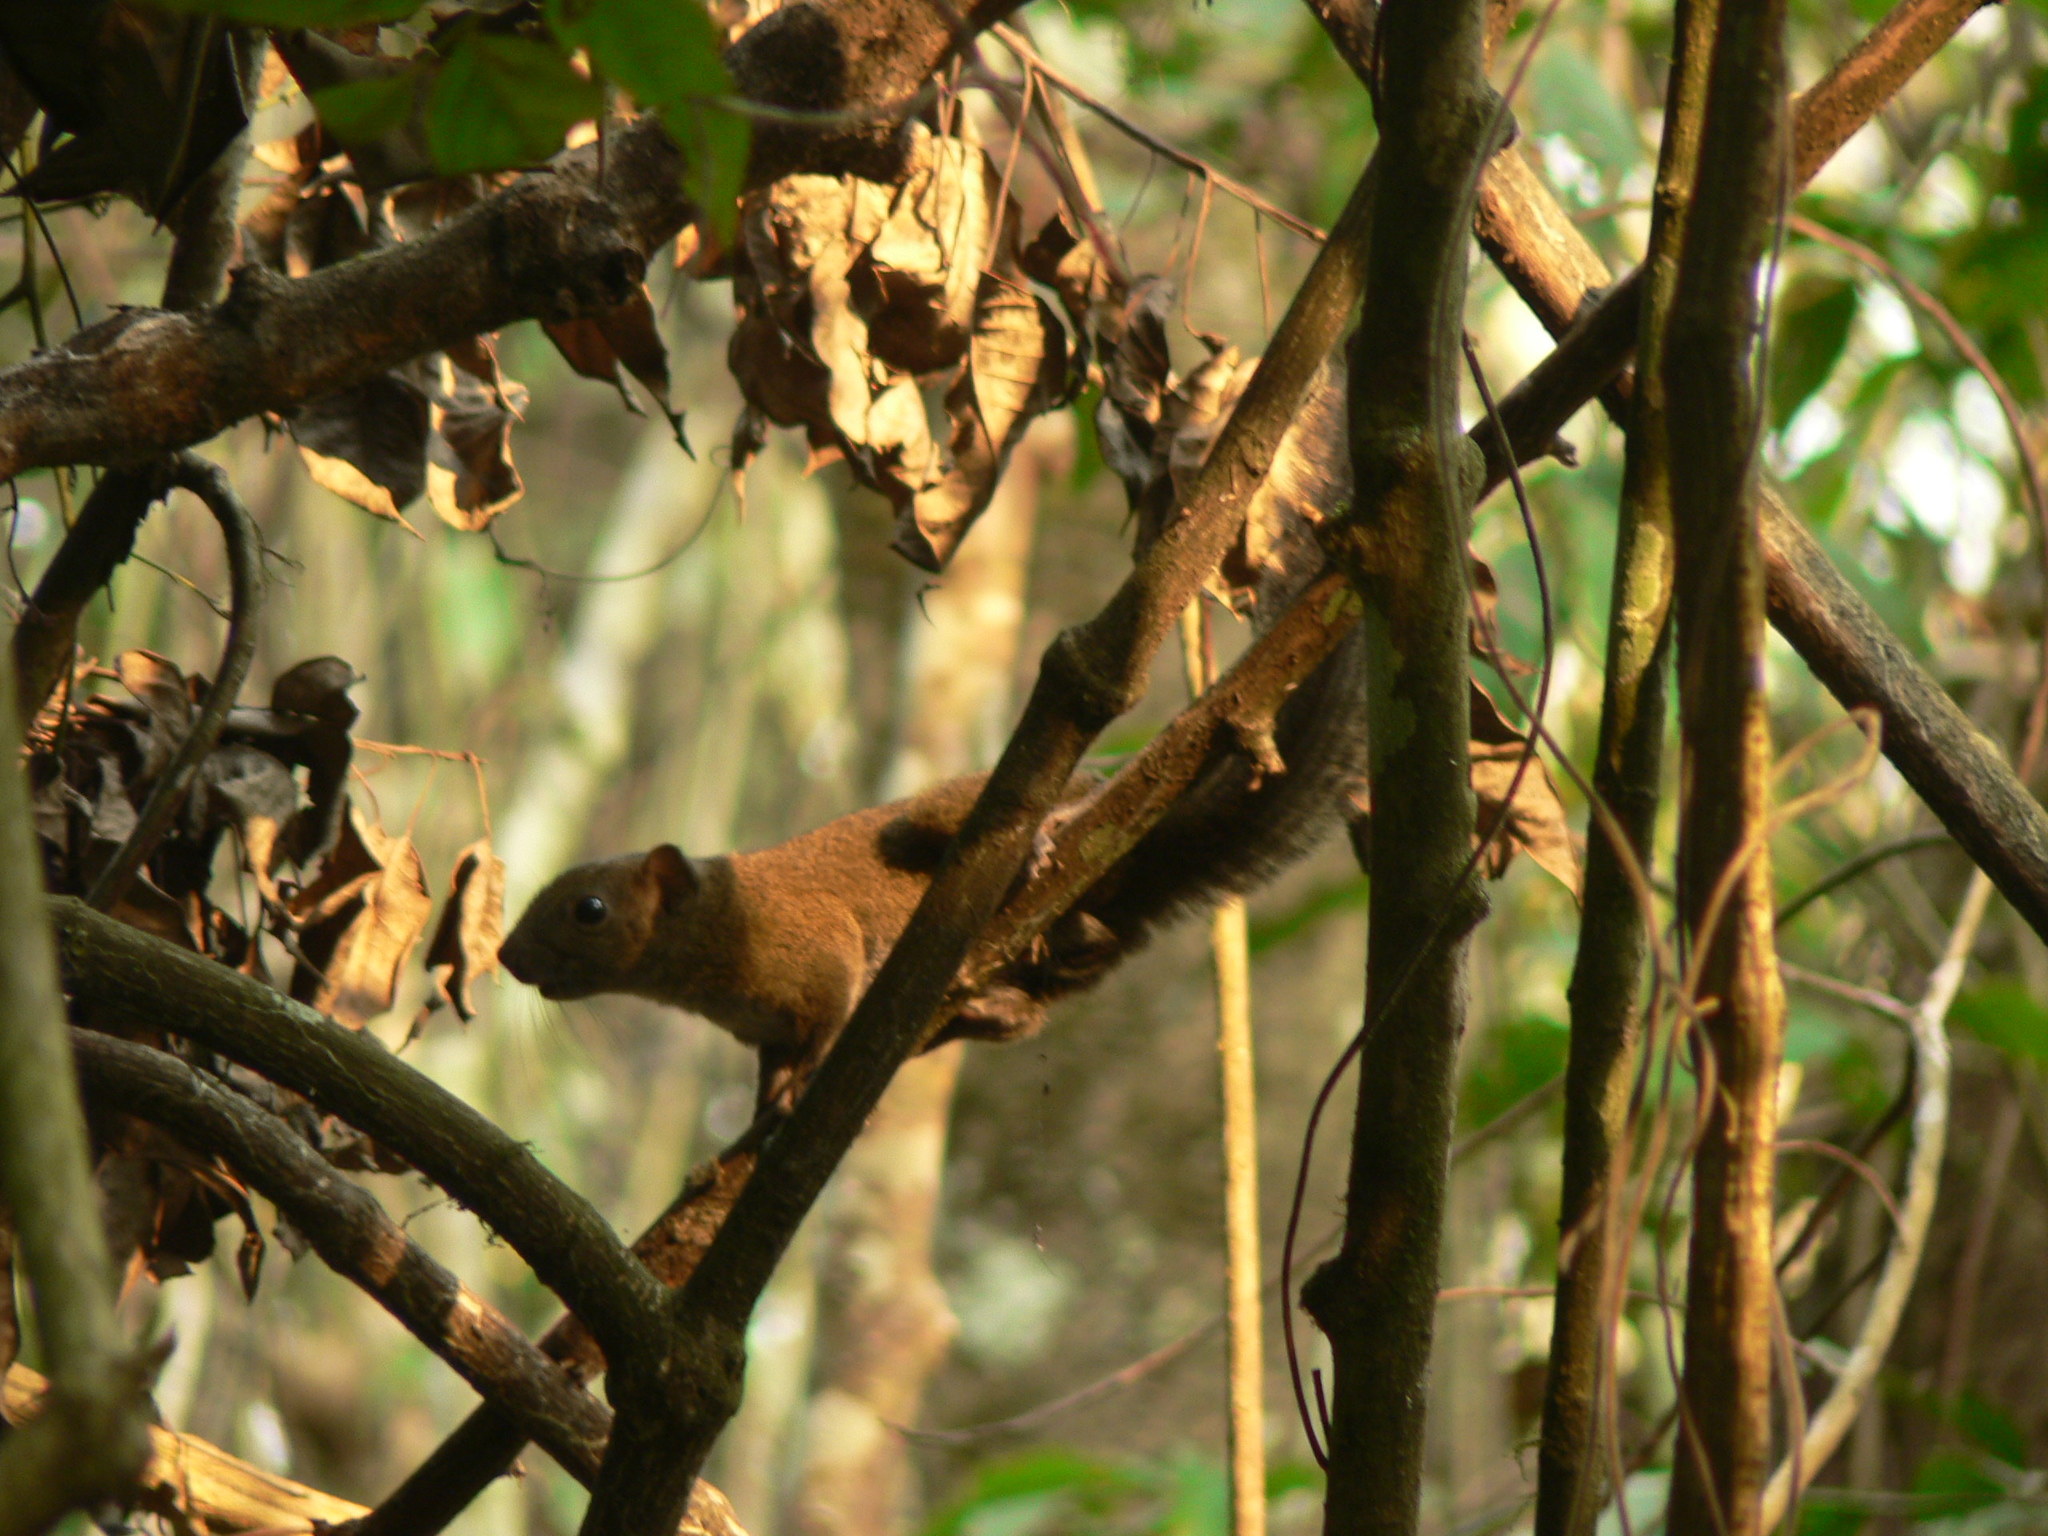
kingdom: Animalia
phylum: Chordata
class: Mammalia
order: Rodentia
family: Sciuridae
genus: Callosciurus
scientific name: Callosciurus erythraeus
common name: Pallas's squirrel
